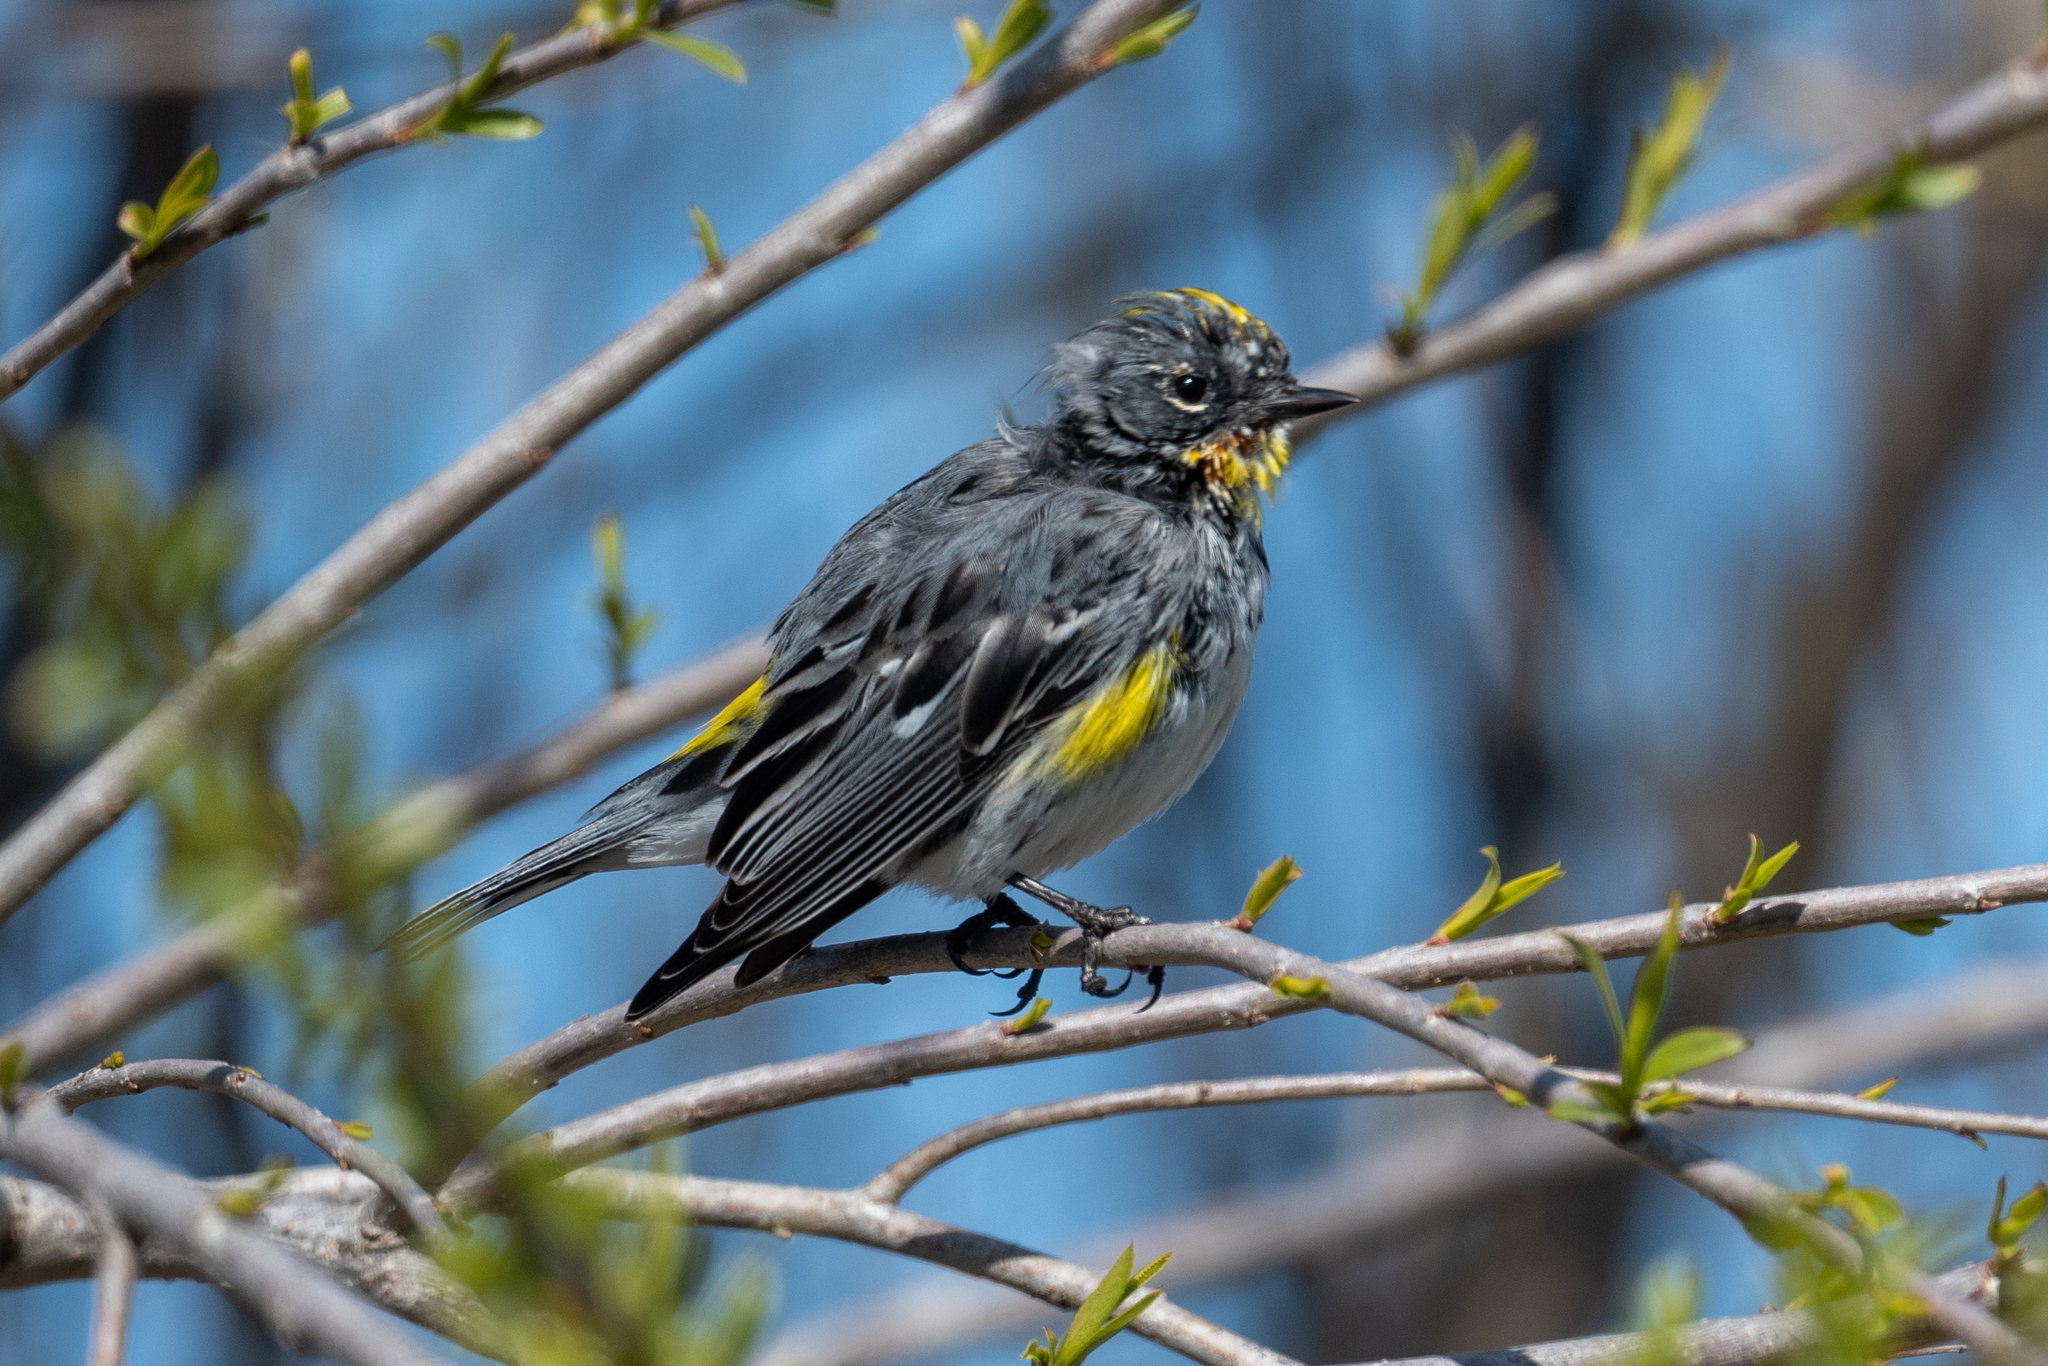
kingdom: Animalia
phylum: Chordata
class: Aves
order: Passeriformes
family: Parulidae
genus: Setophaga
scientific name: Setophaga coronata
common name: Myrtle warbler
